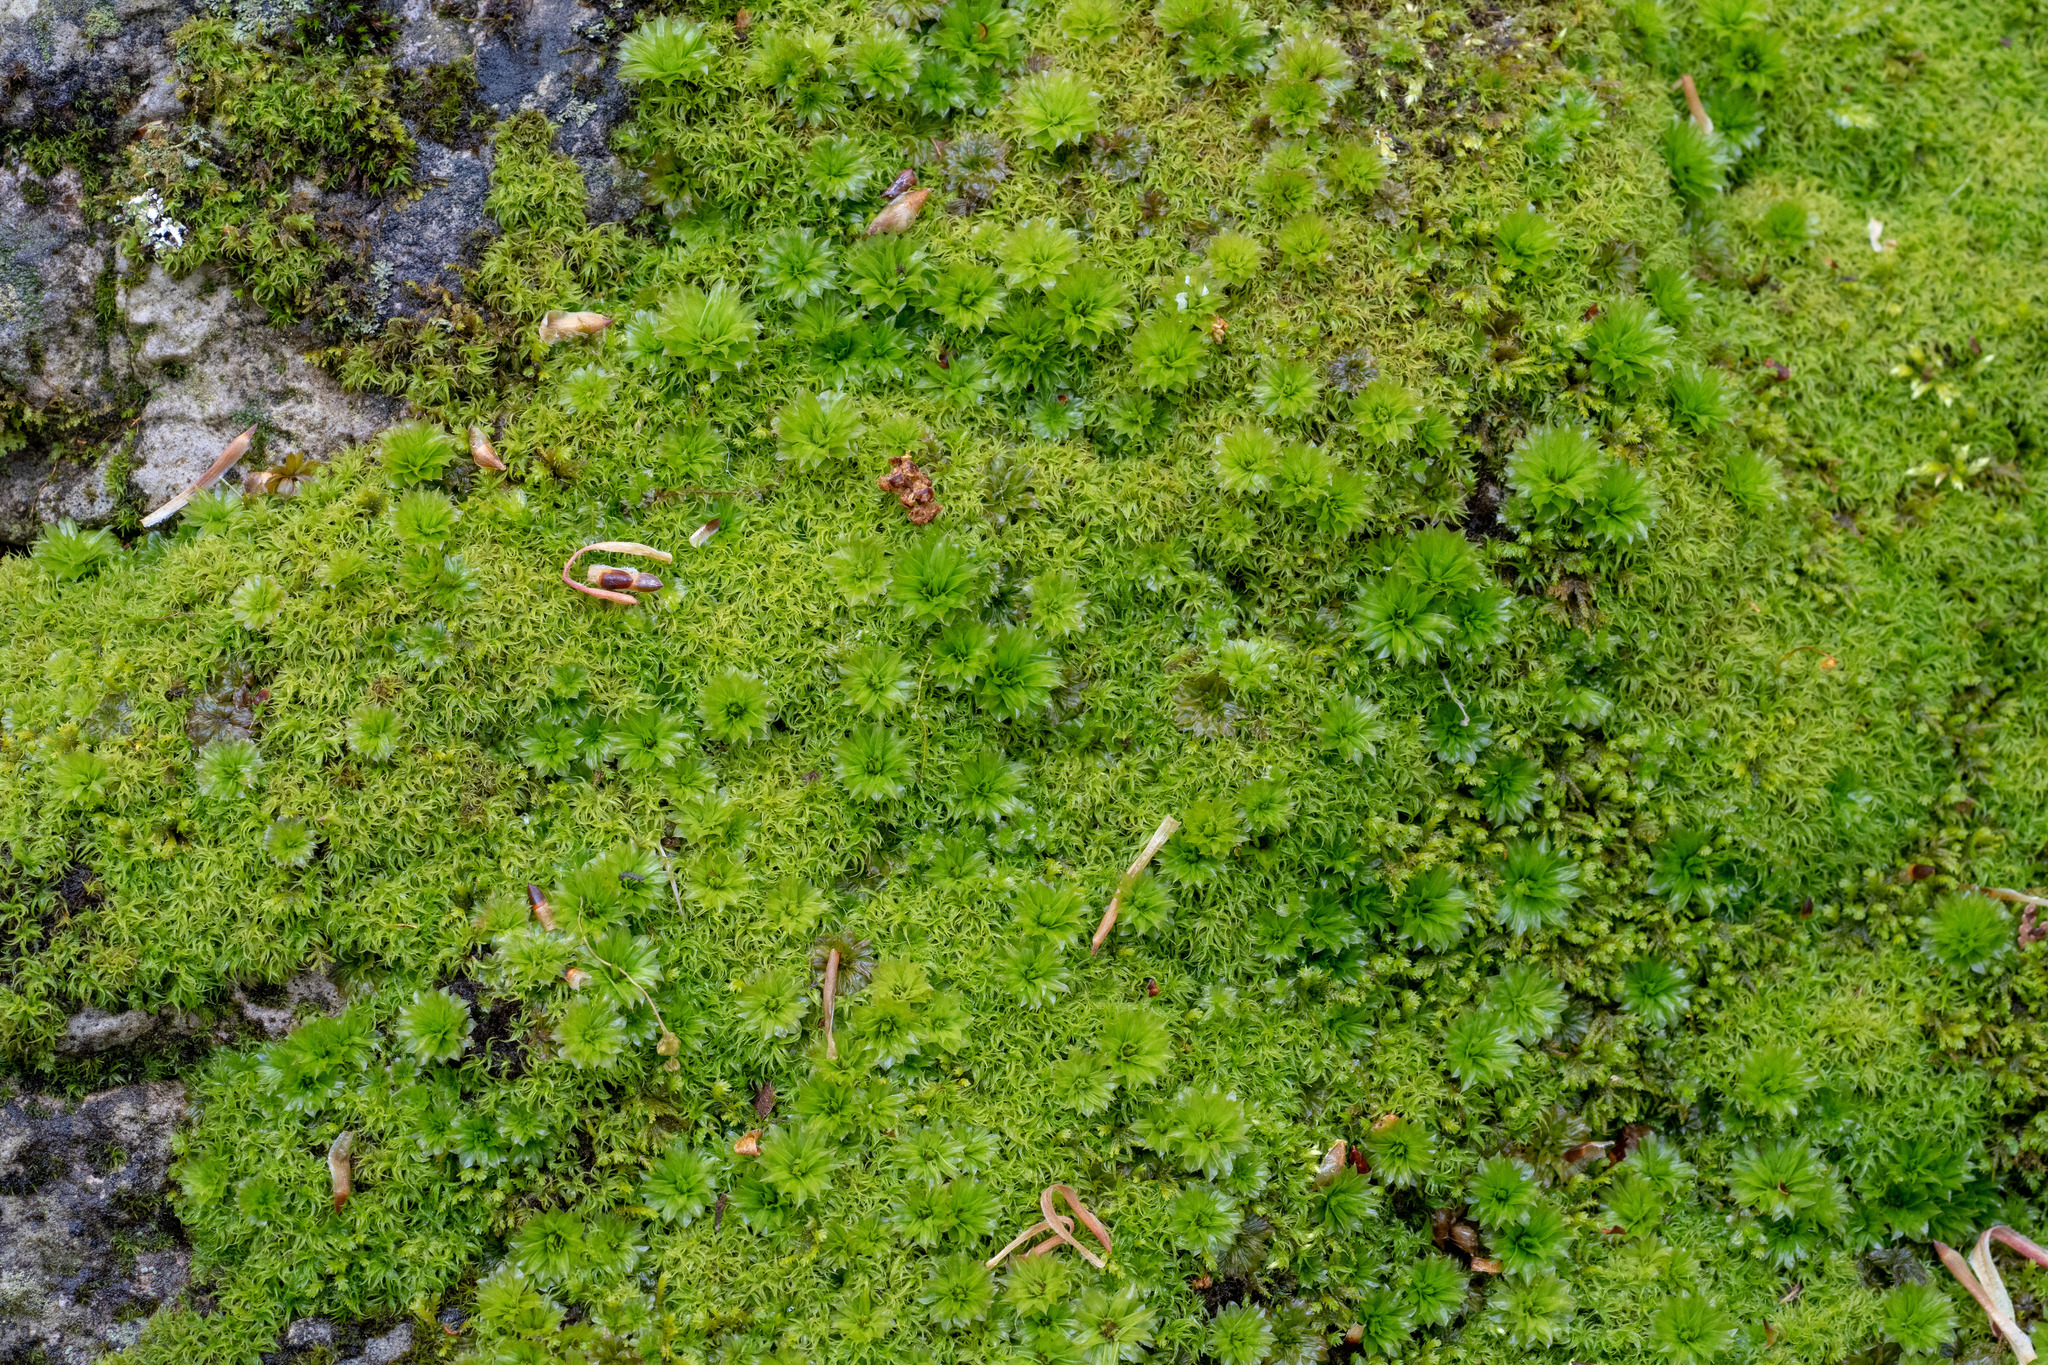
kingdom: Plantae
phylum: Bryophyta
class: Bryopsida
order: Bryales
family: Bryaceae
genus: Rhodobryum
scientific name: Rhodobryum ontariense
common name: Ontario rhodobryum moss
